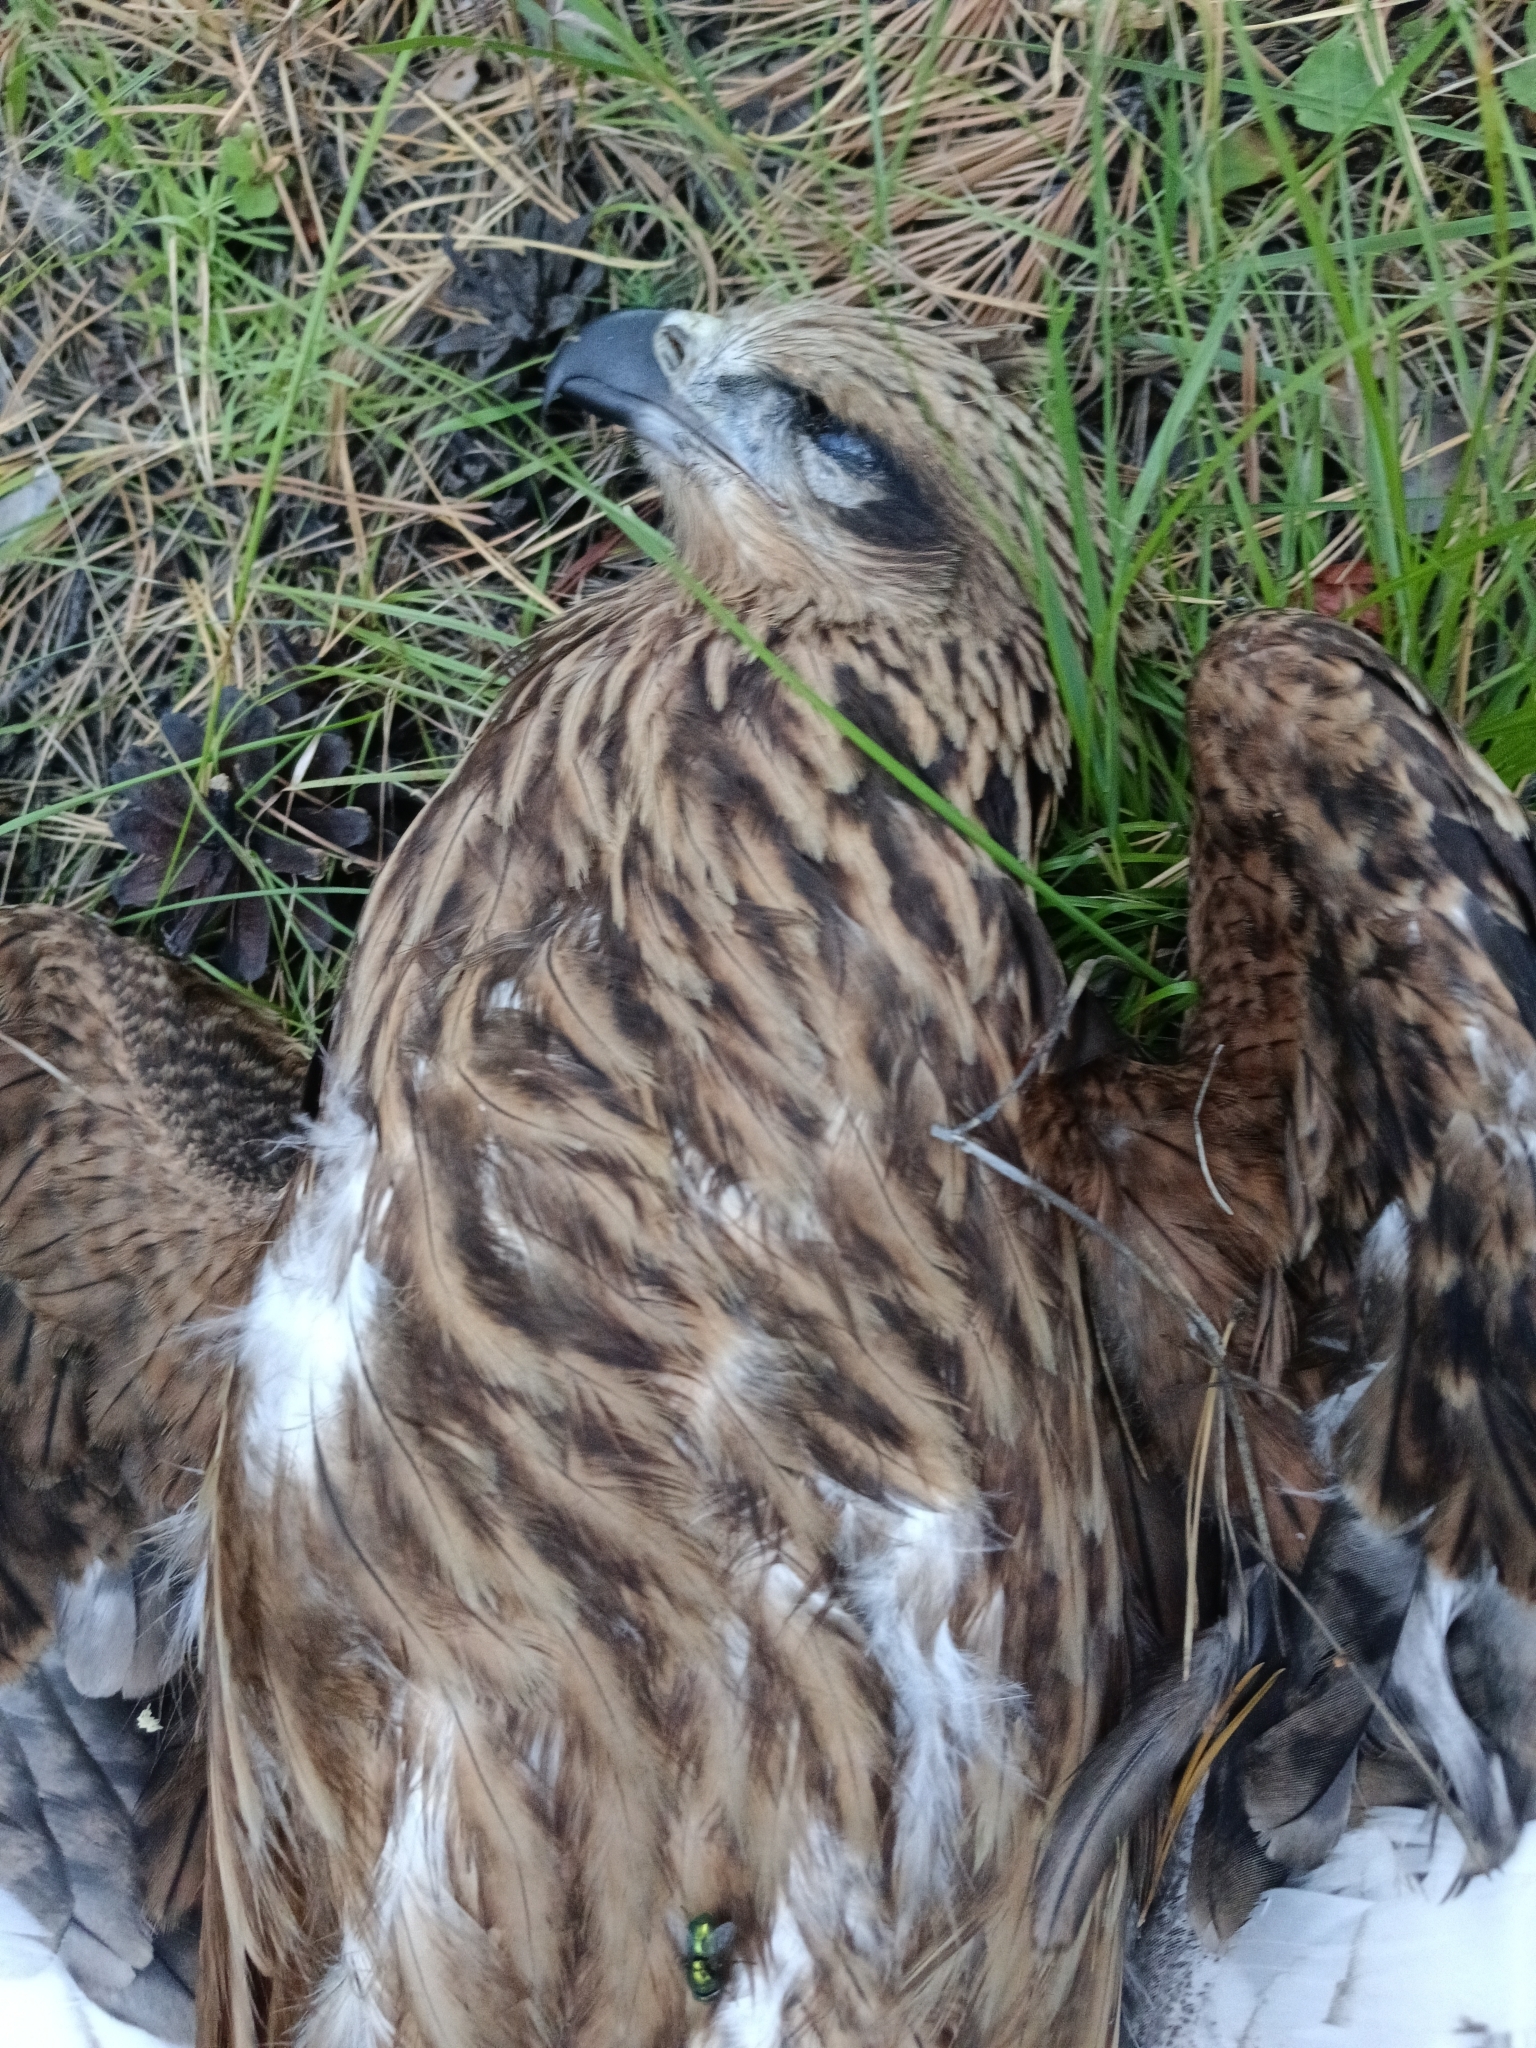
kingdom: Animalia
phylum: Chordata
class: Aves
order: Accipitriformes
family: Accipitridae
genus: Milvus
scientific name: Milvus migrans
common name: Black kite
